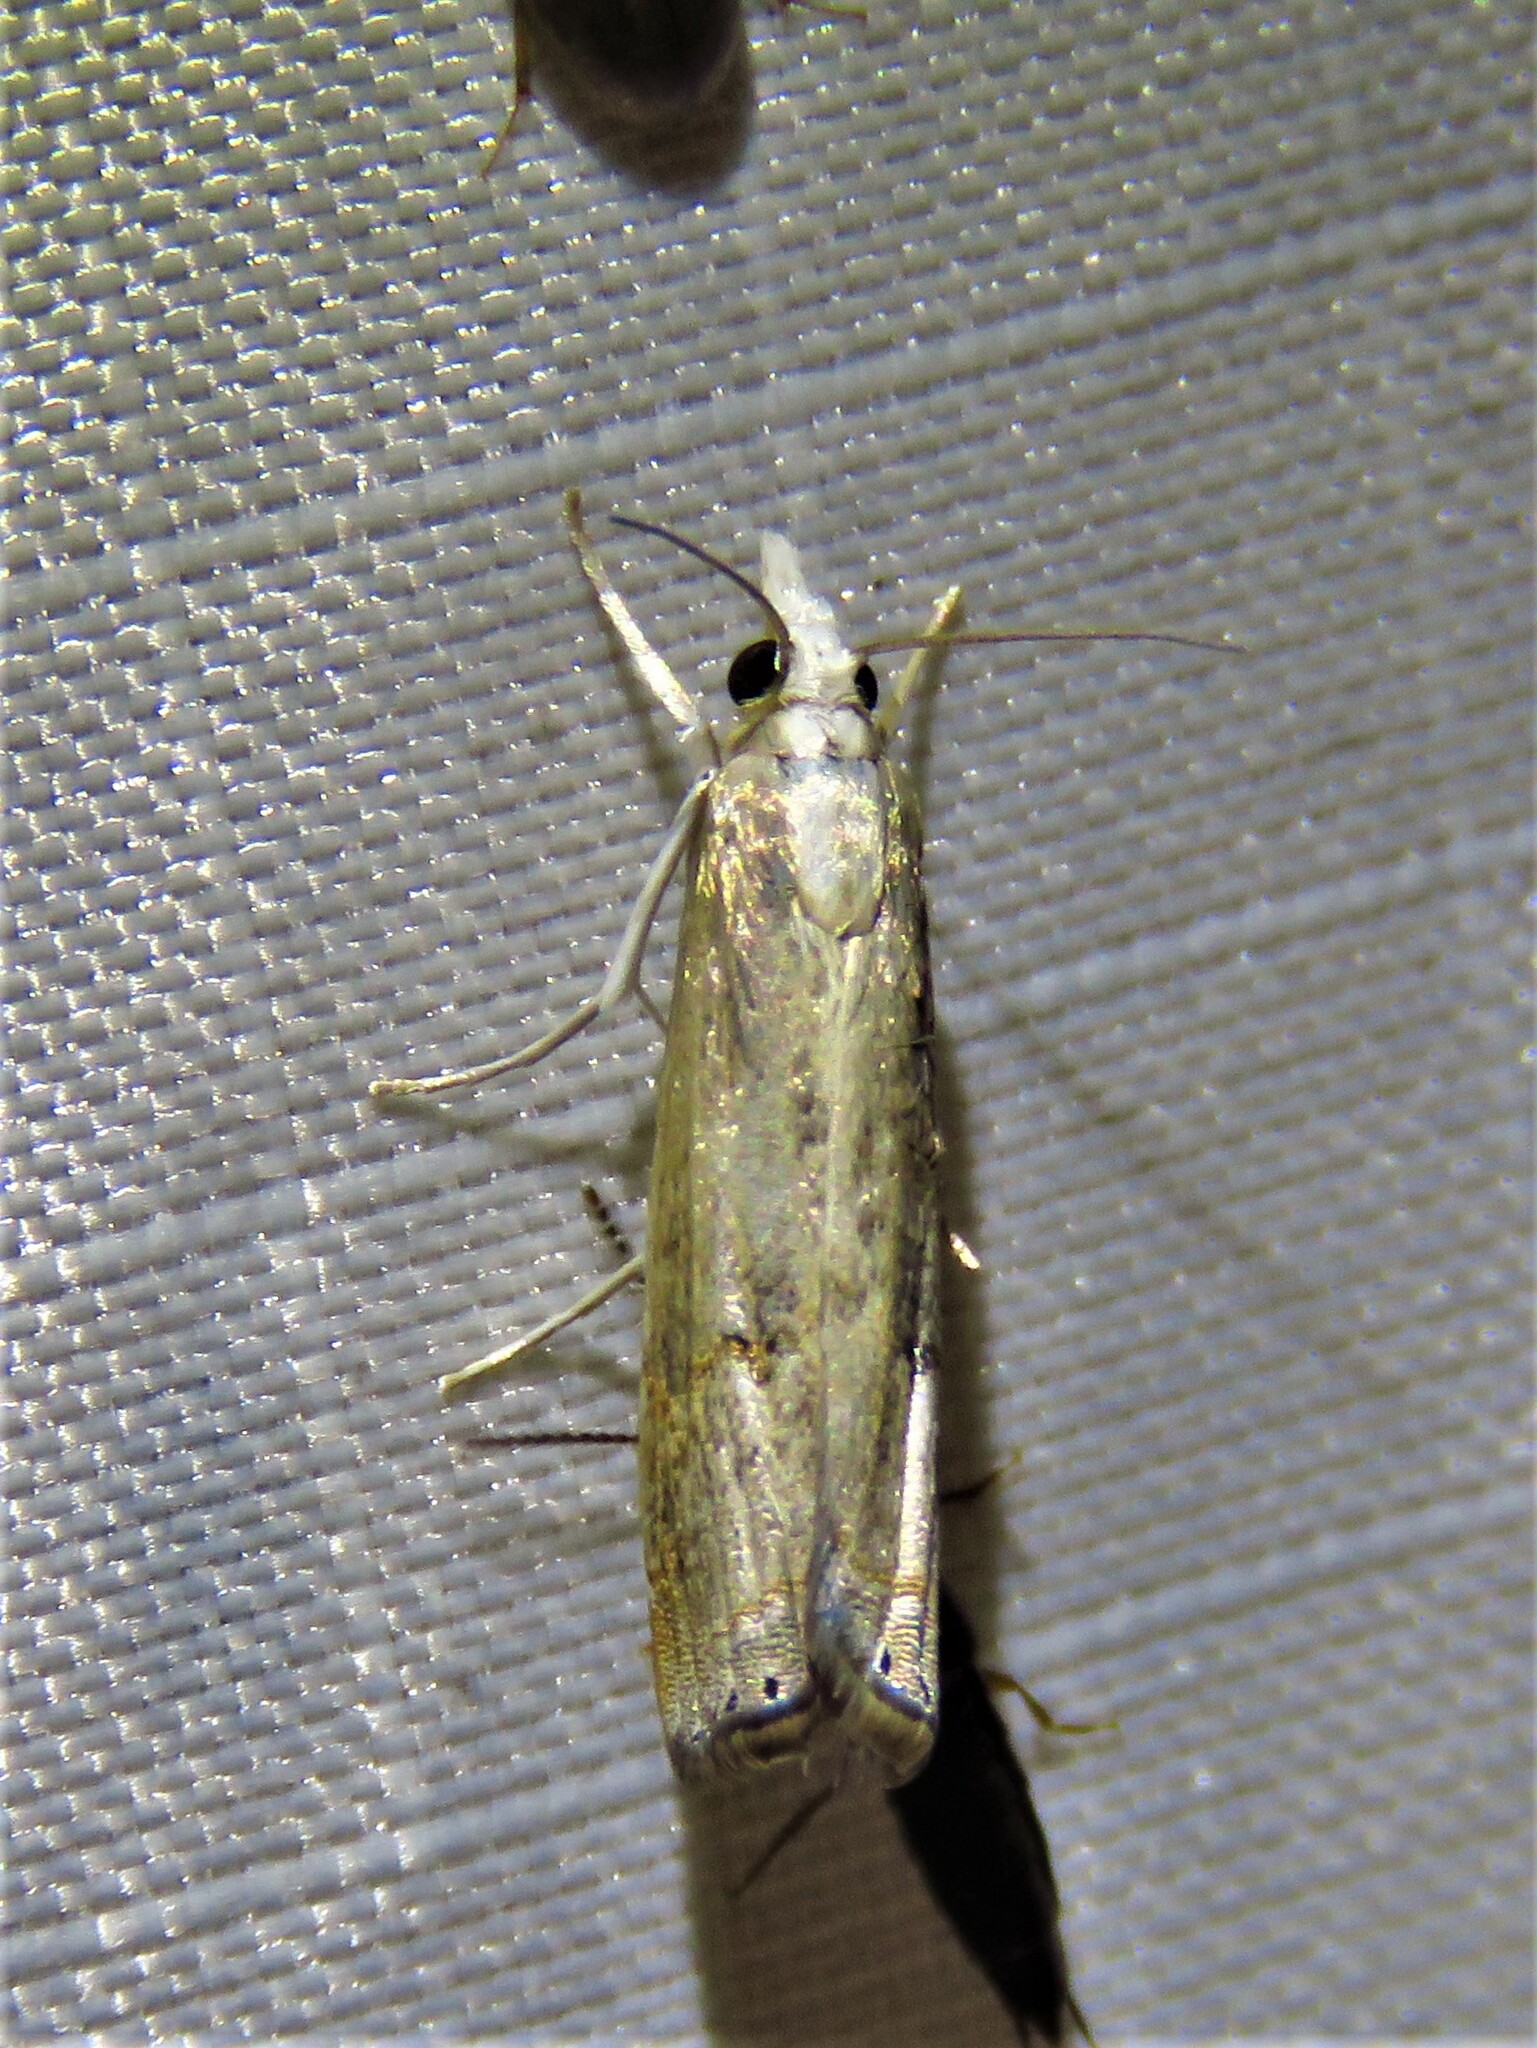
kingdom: Animalia
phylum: Arthropoda
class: Insecta
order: Lepidoptera
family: Crambidae
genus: Parapediasia
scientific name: Parapediasia teterellus
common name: Bluegrass webworm moth
